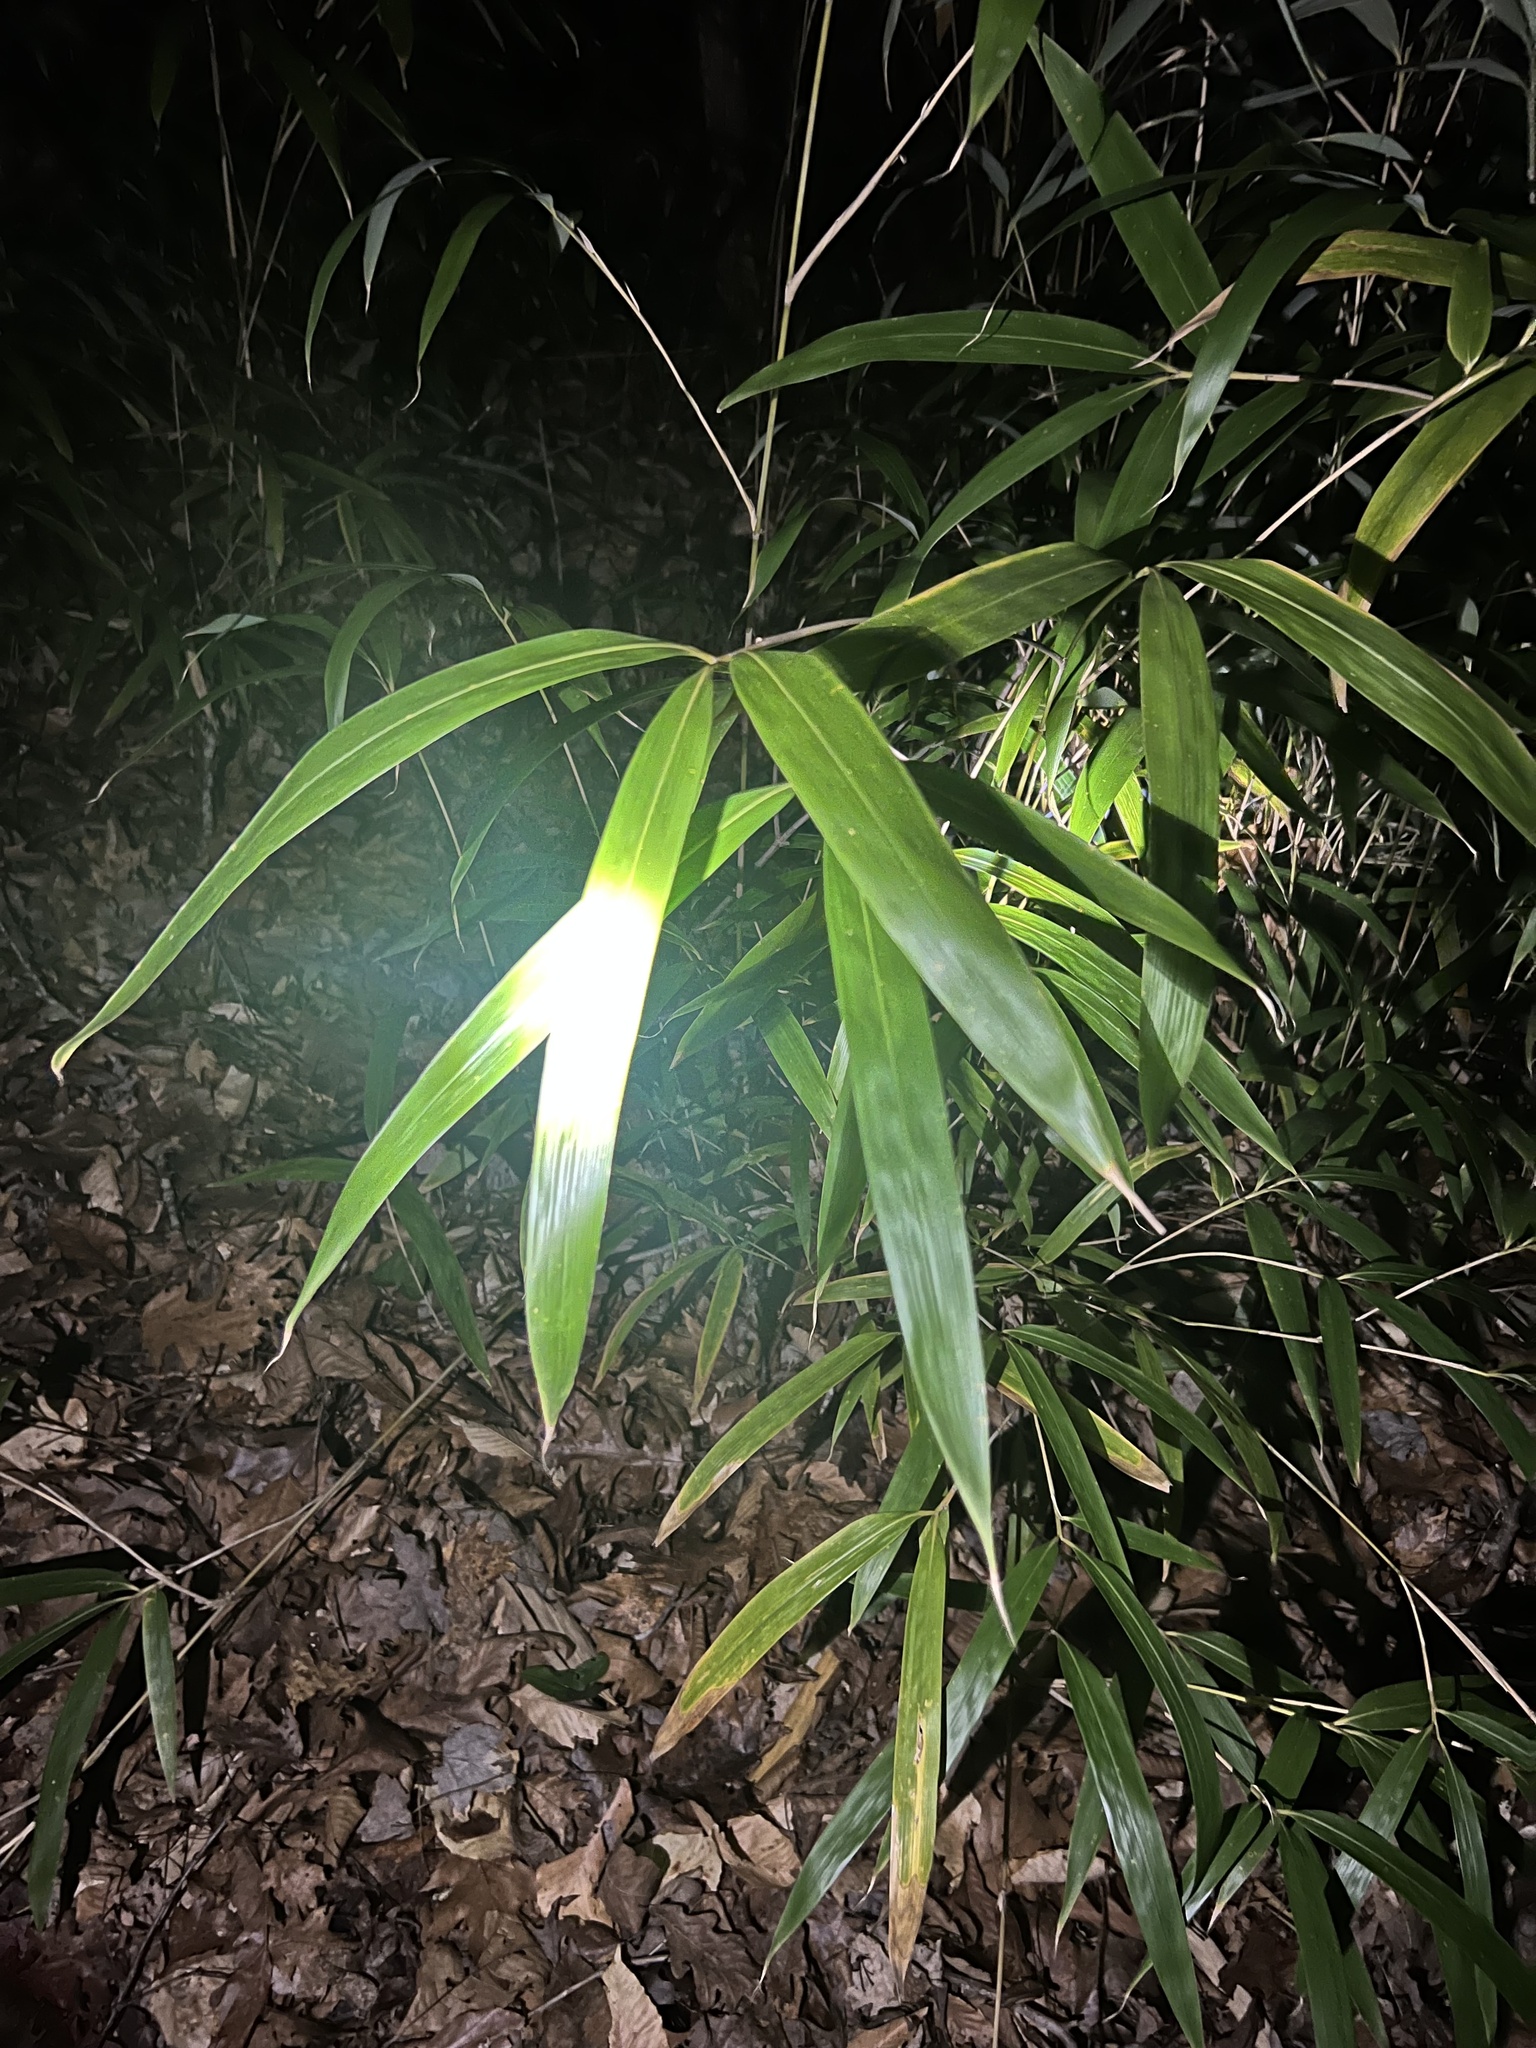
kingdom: Plantae
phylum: Tracheophyta
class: Liliopsida
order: Poales
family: Poaceae
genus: Arundinaria
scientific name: Arundinaria gigantea
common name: Giant cane
